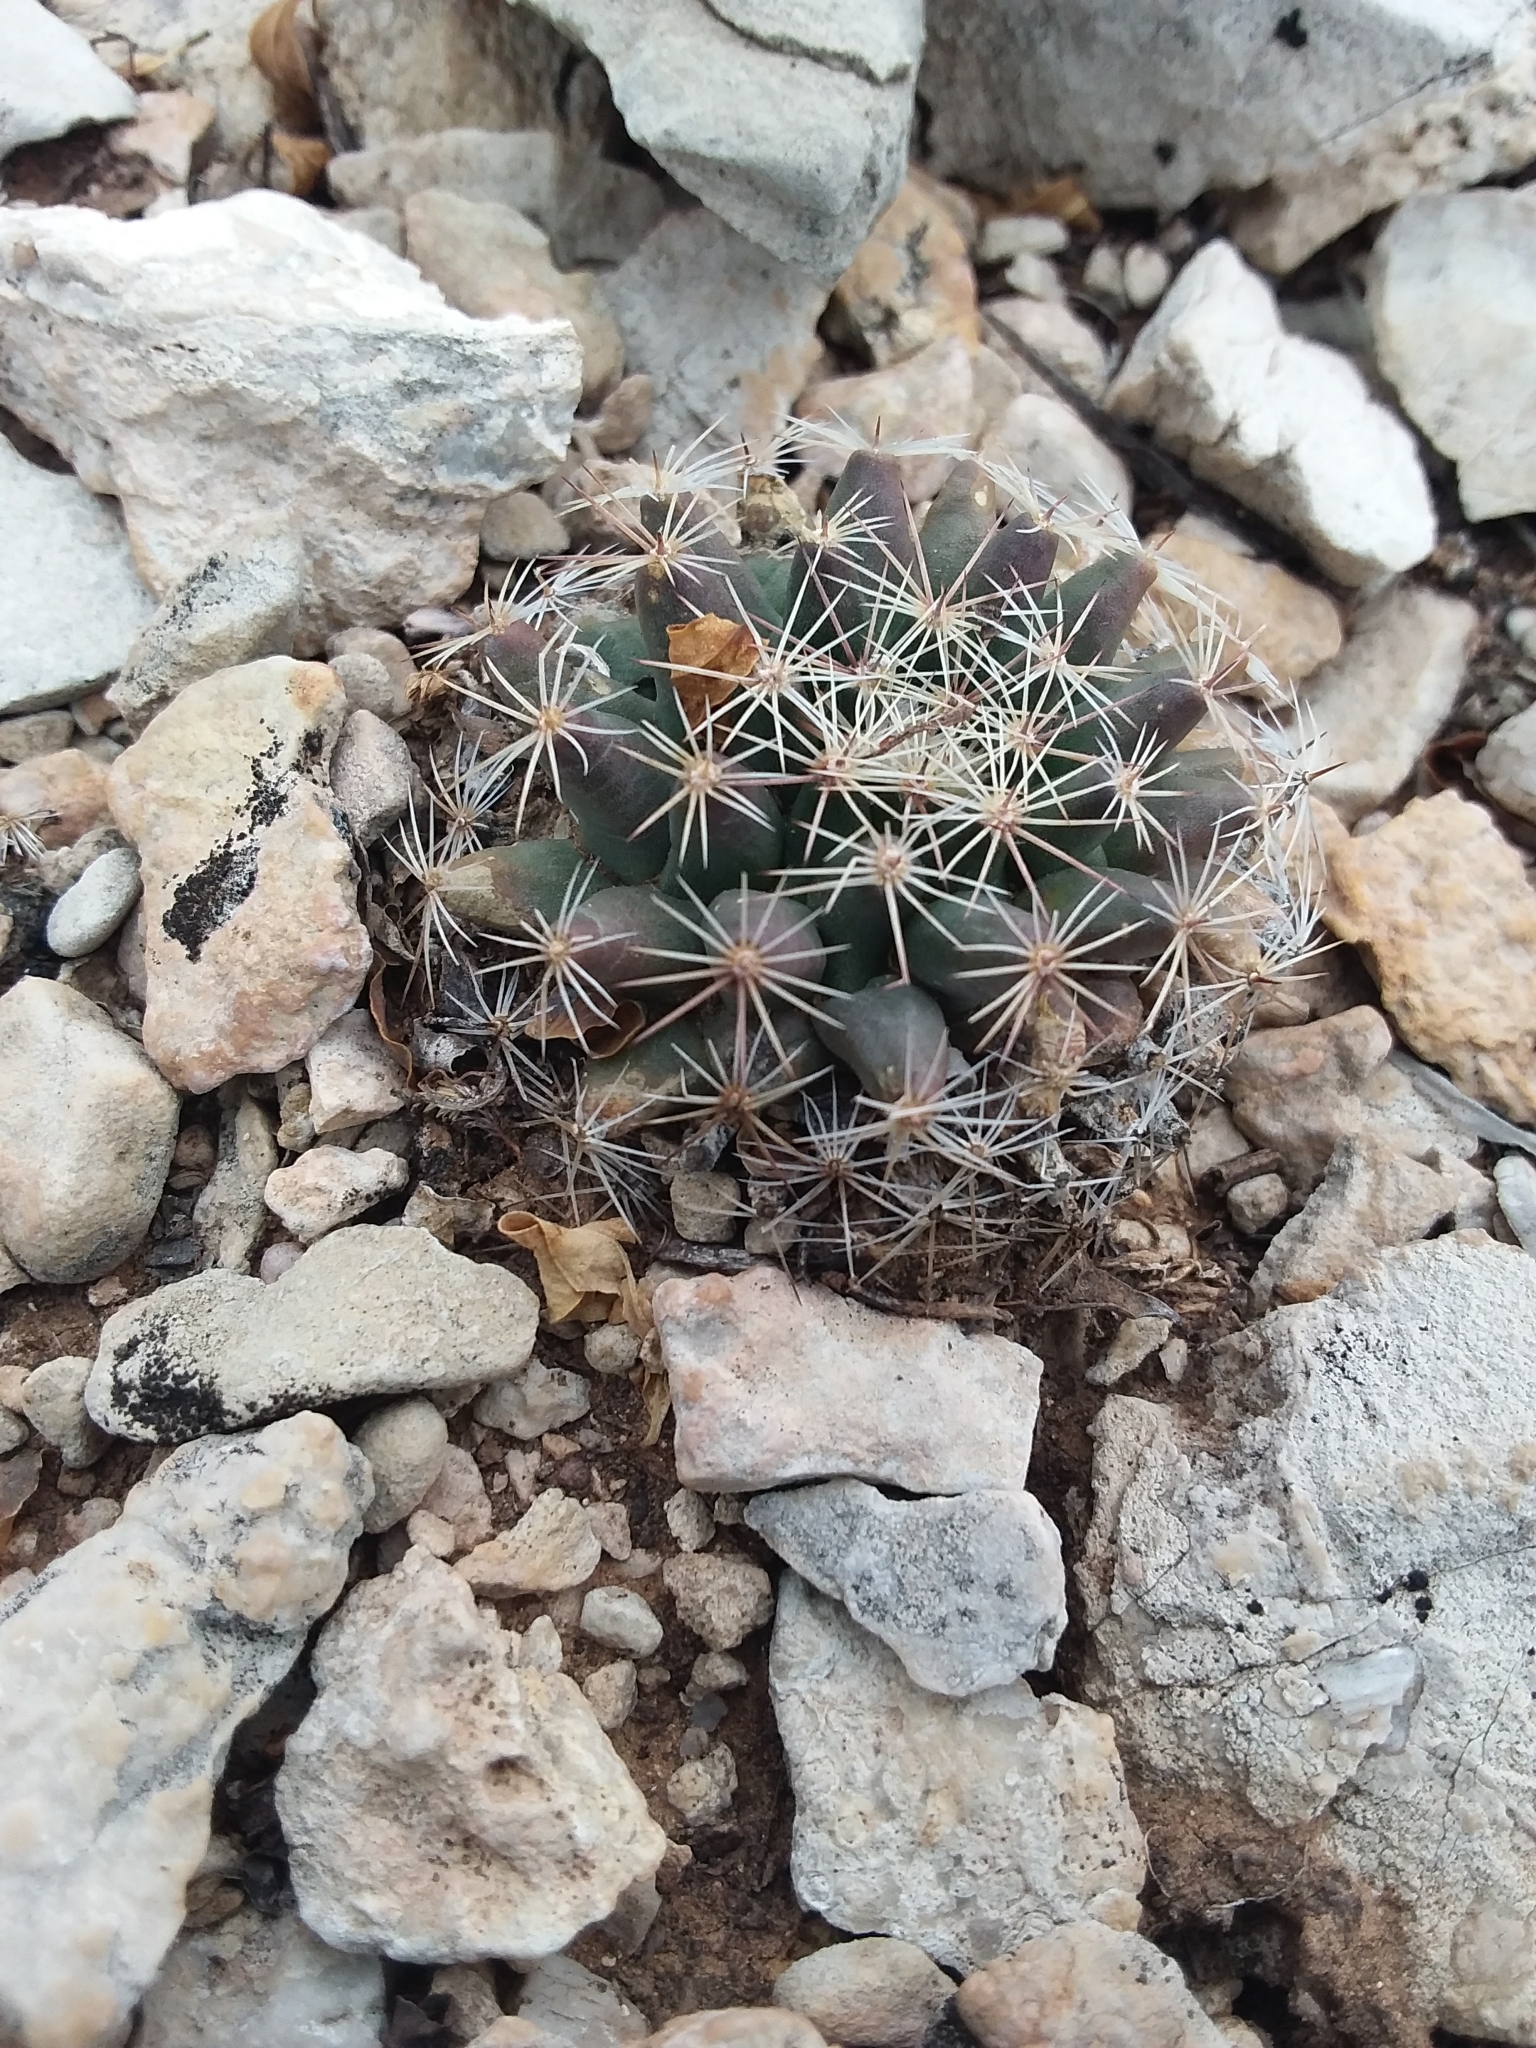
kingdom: Plantae
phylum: Tracheophyta
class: Magnoliopsida
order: Caryophyllales
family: Cactaceae
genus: Mammillaria
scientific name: Mammillaria heyderi
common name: Little nipple cactus
